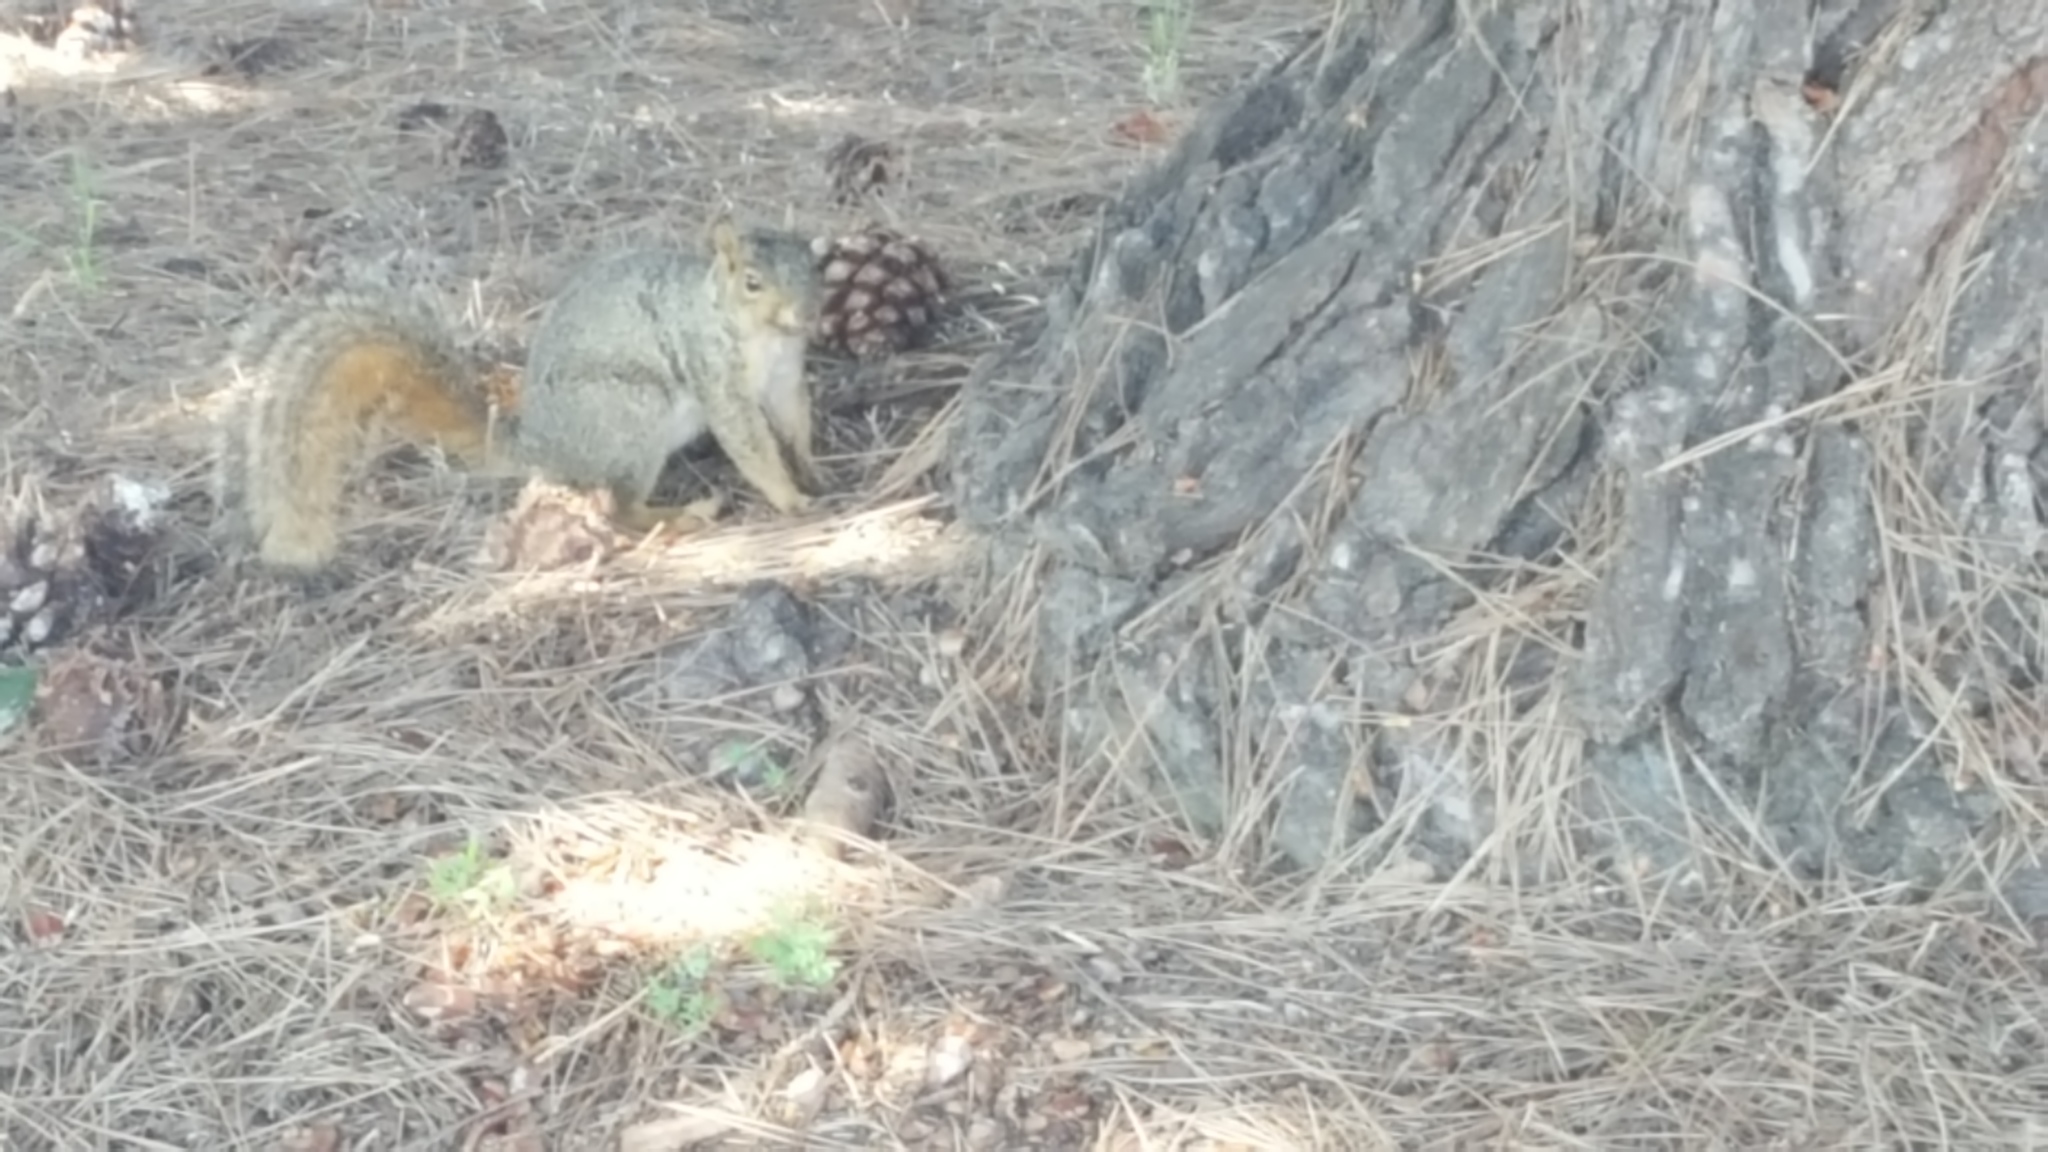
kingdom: Animalia
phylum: Chordata
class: Mammalia
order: Rodentia
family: Sciuridae
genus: Sciurus
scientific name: Sciurus niger
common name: Fox squirrel
